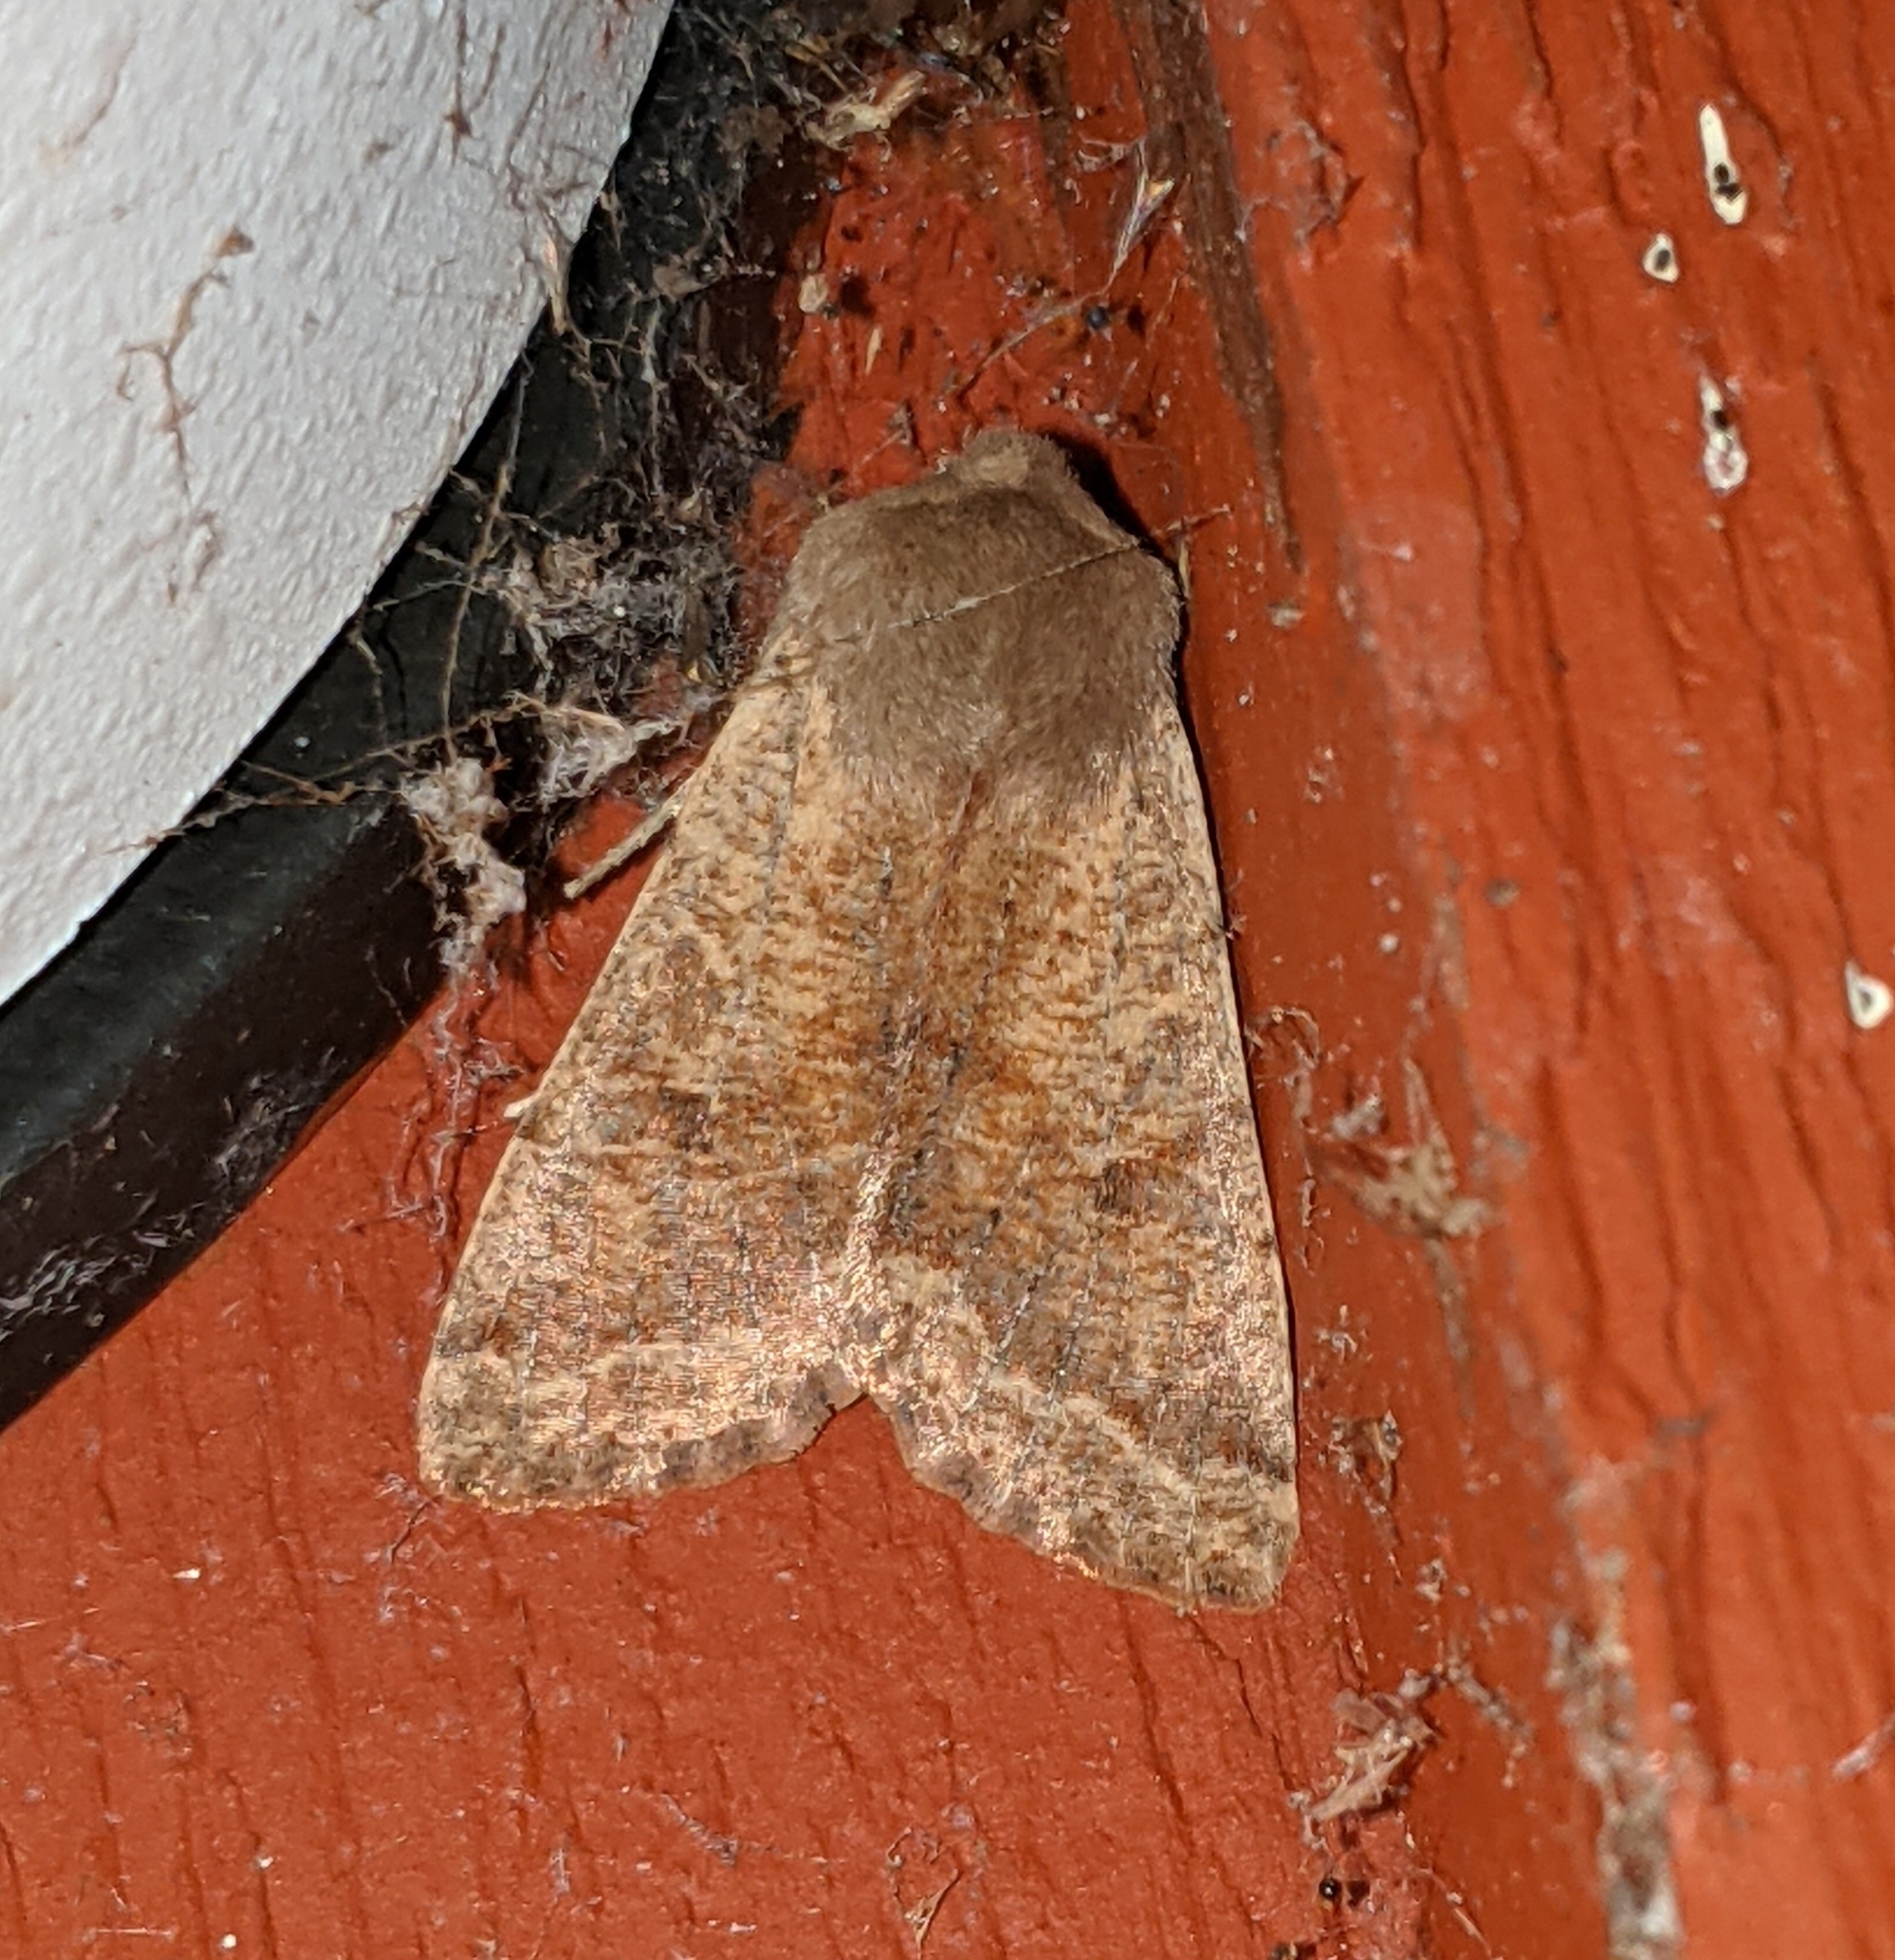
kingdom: Animalia
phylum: Arthropoda
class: Insecta
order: Lepidoptera
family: Noctuidae
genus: Orthosia
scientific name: Orthosia pacifica
